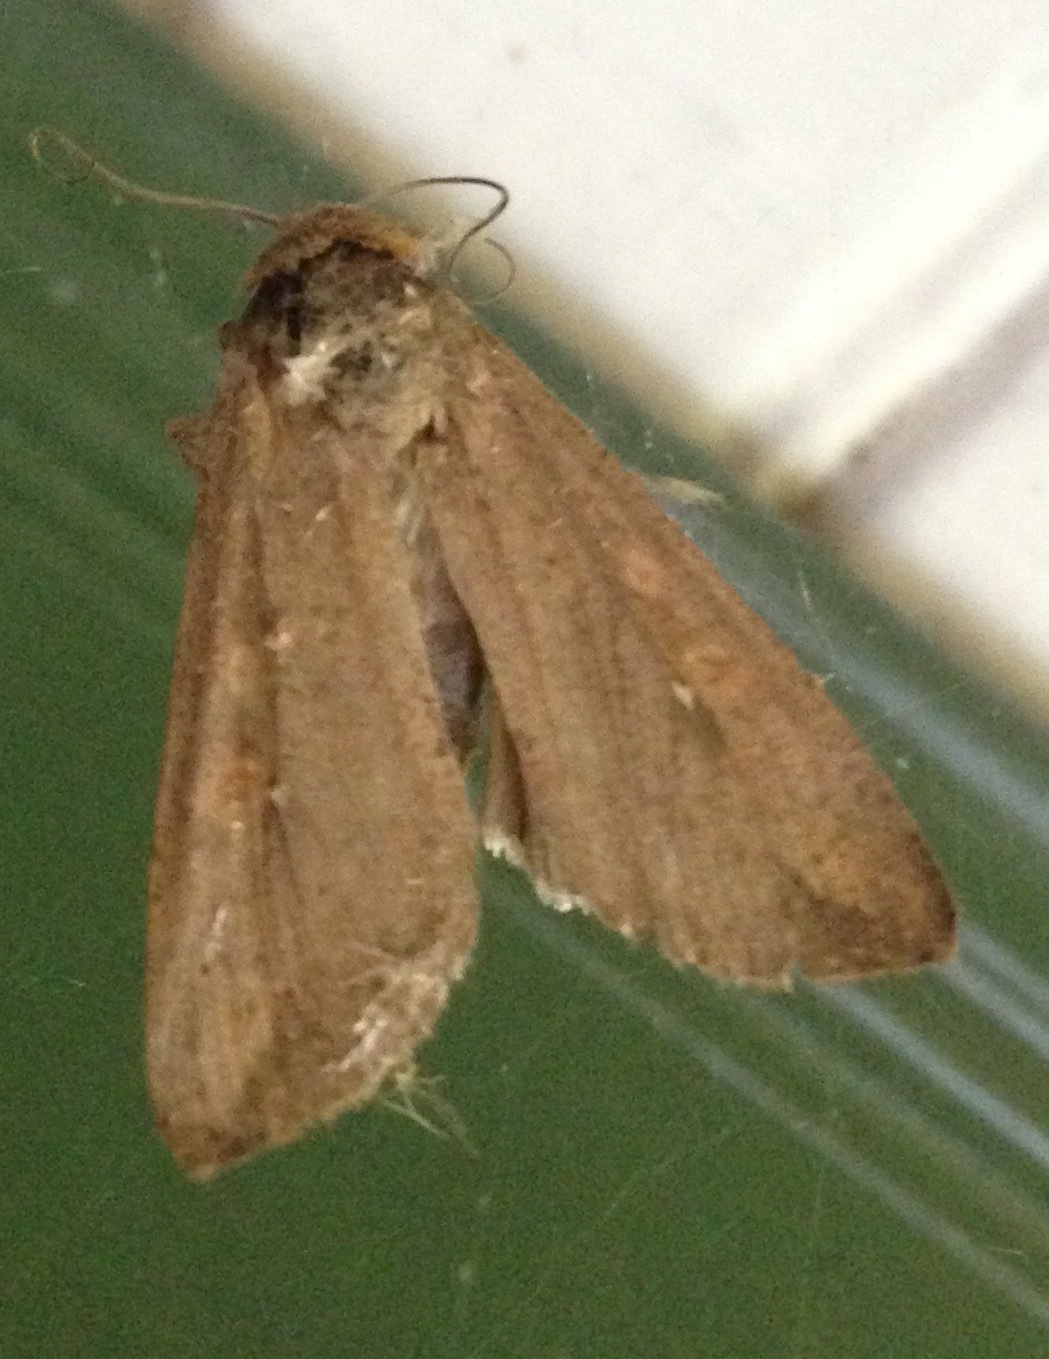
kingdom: Animalia
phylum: Arthropoda
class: Insecta
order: Lepidoptera
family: Noctuidae
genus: Mythimna
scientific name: Mythimna unipuncta
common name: White-speck
